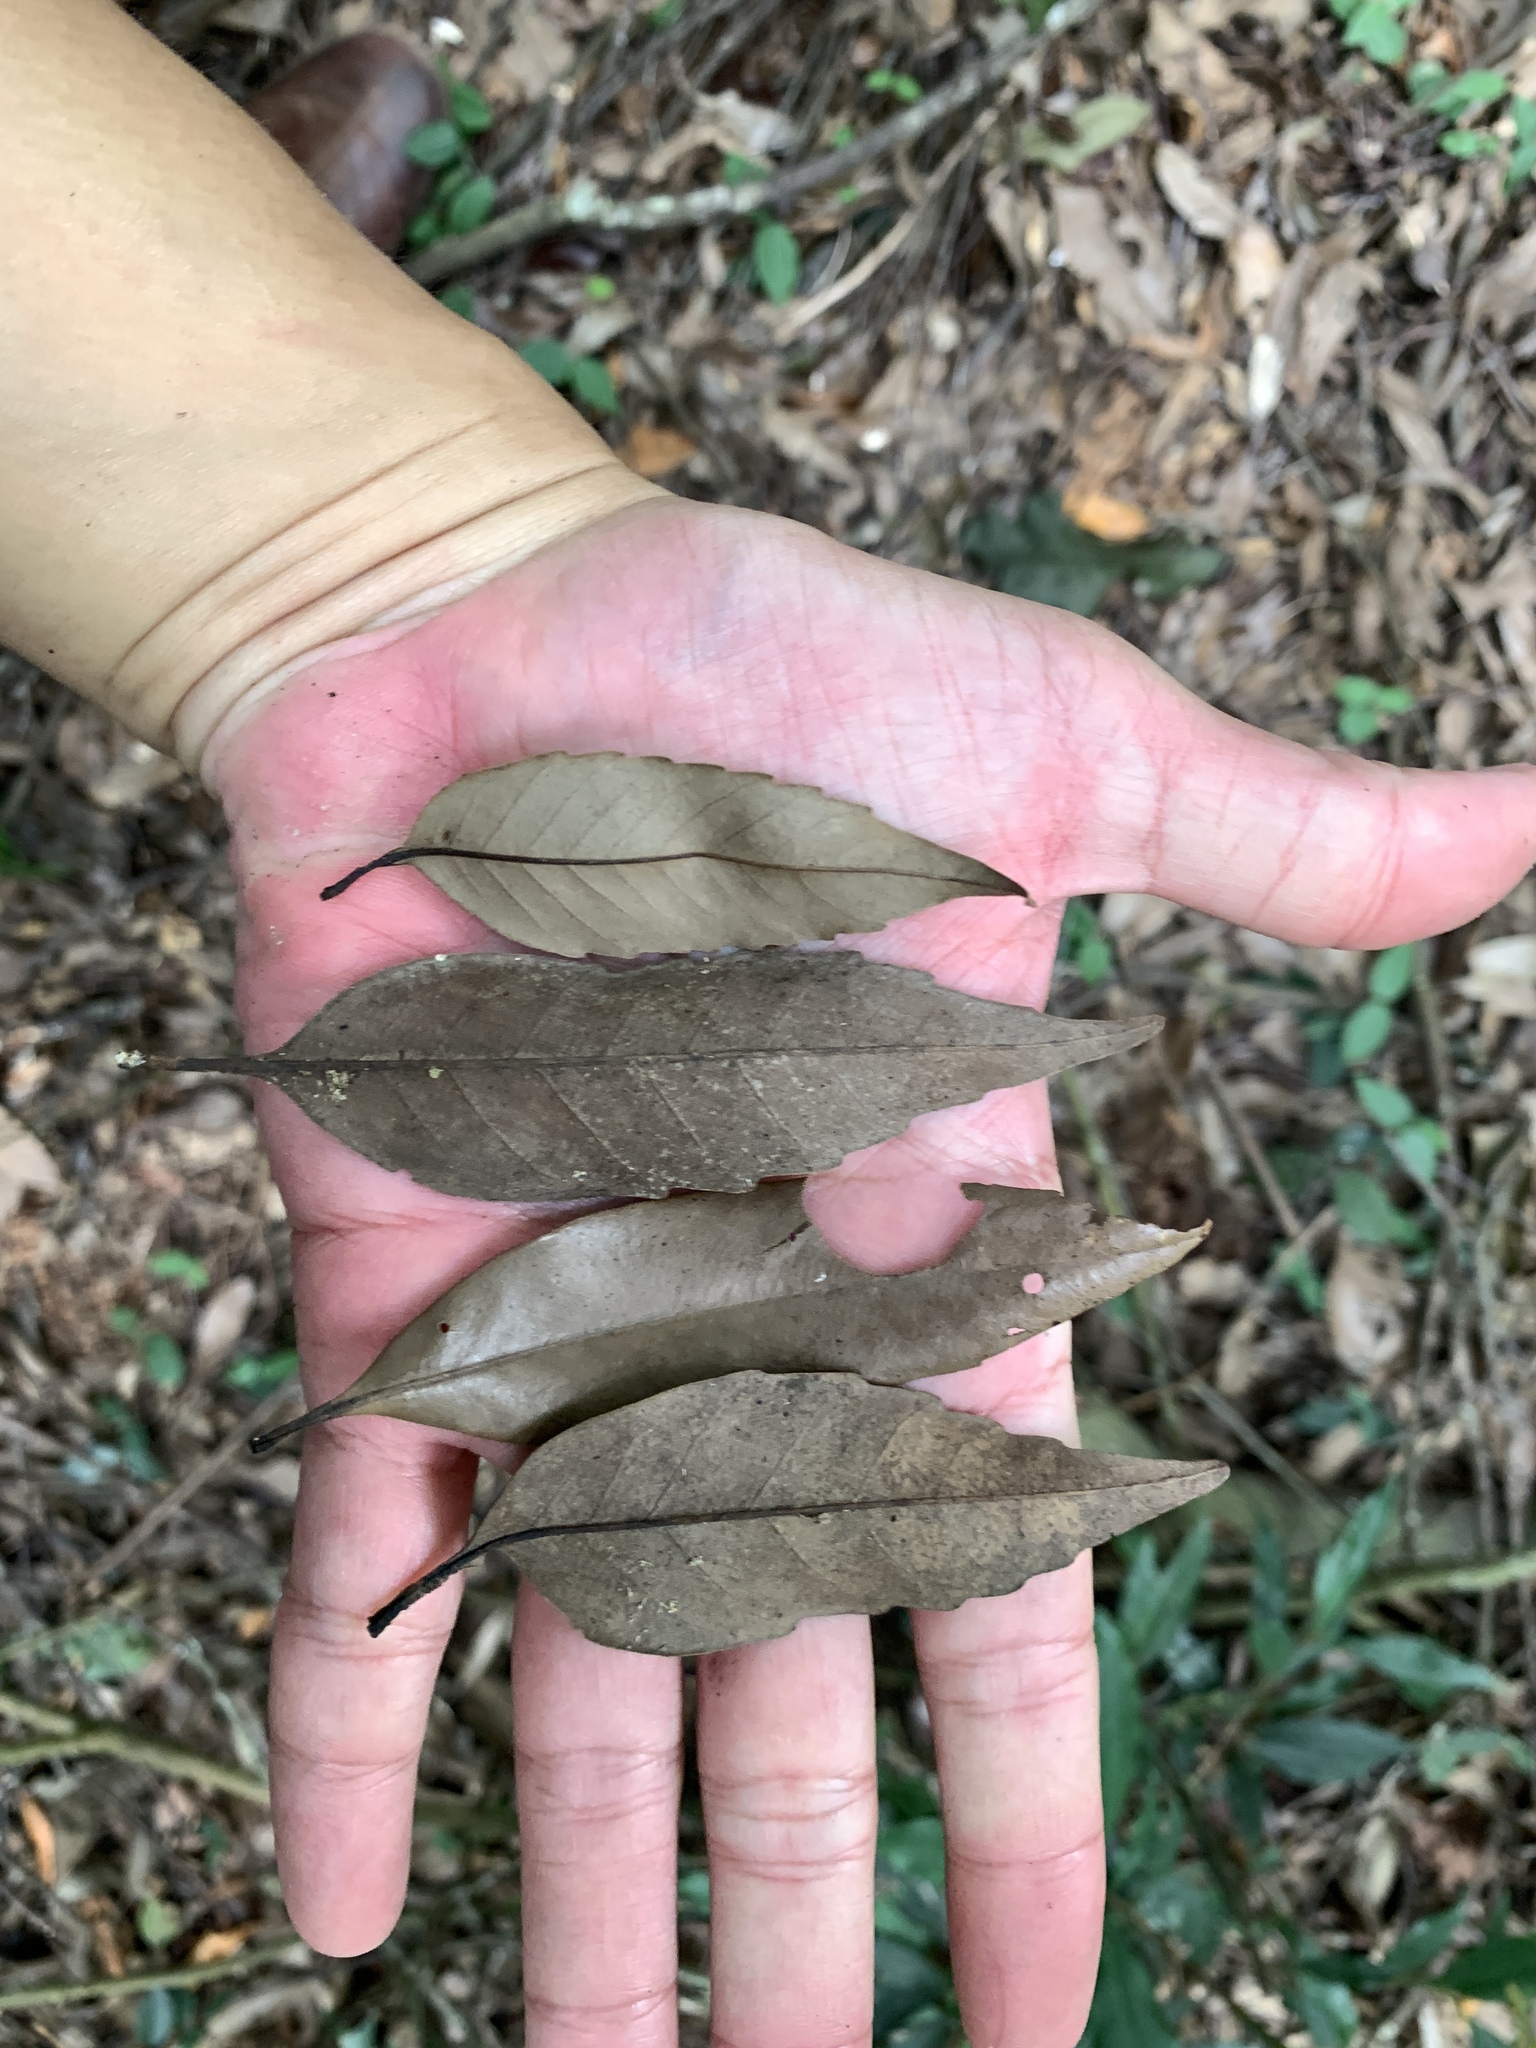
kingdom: Plantae
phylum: Tracheophyta
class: Magnoliopsida
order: Proteales
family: Proteaceae
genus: Helicia
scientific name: Helicia cochinchinensis
